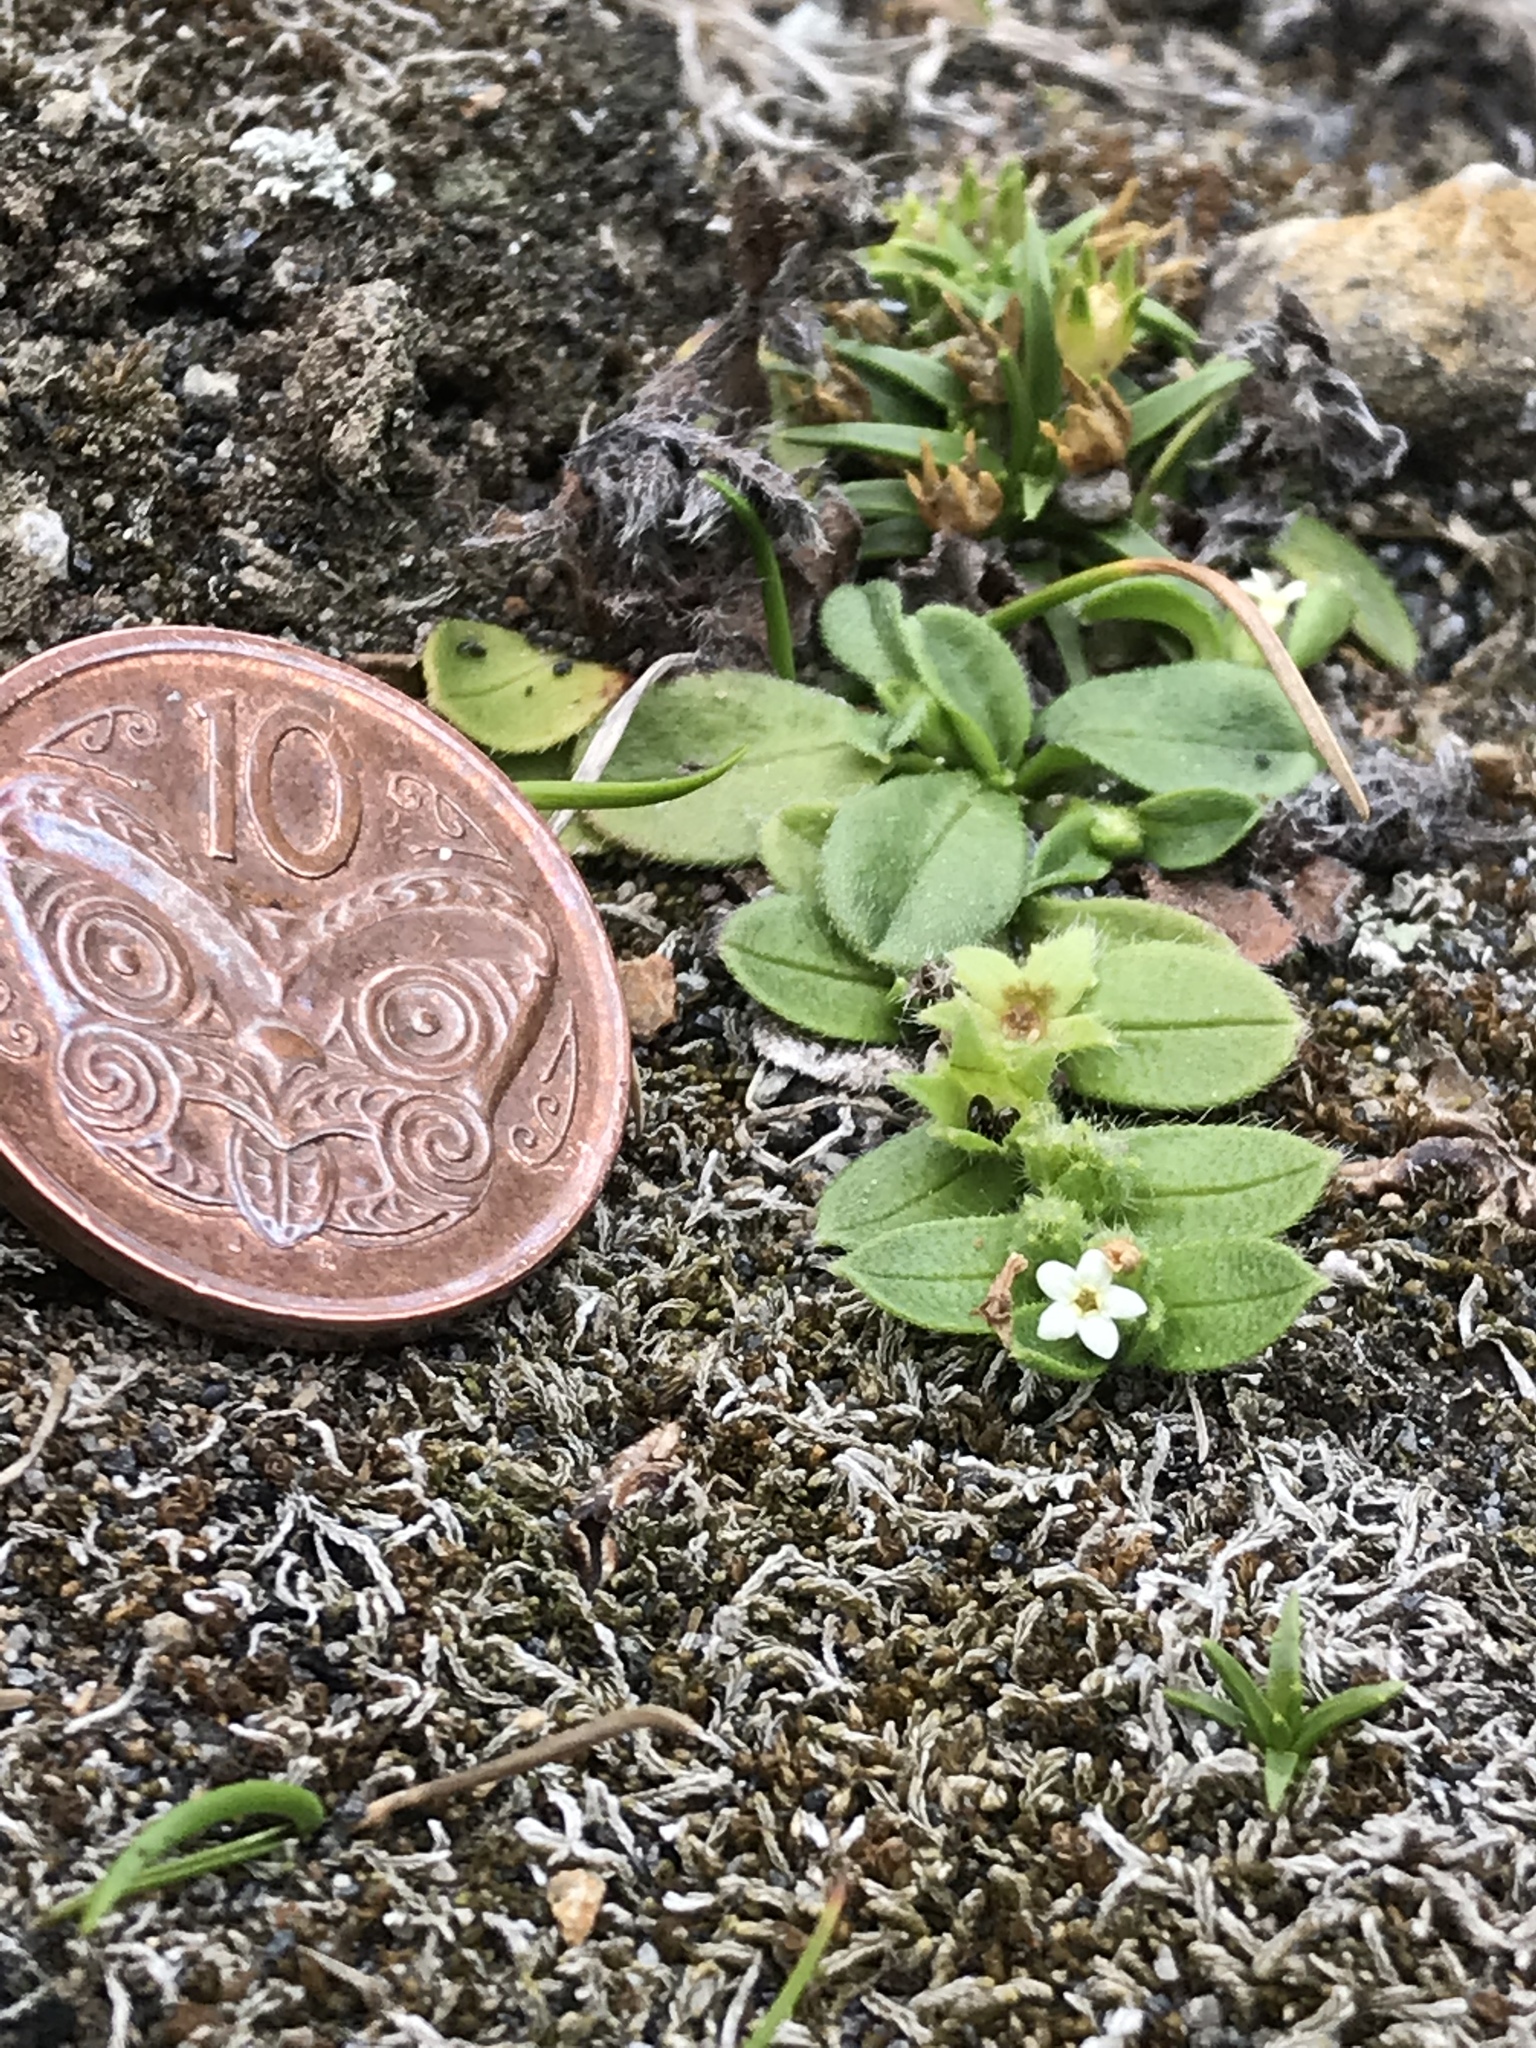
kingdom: Plantae
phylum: Tracheophyta
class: Magnoliopsida
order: Boraginales
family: Boraginaceae
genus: Myosotis
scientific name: Myosotis antarctica
